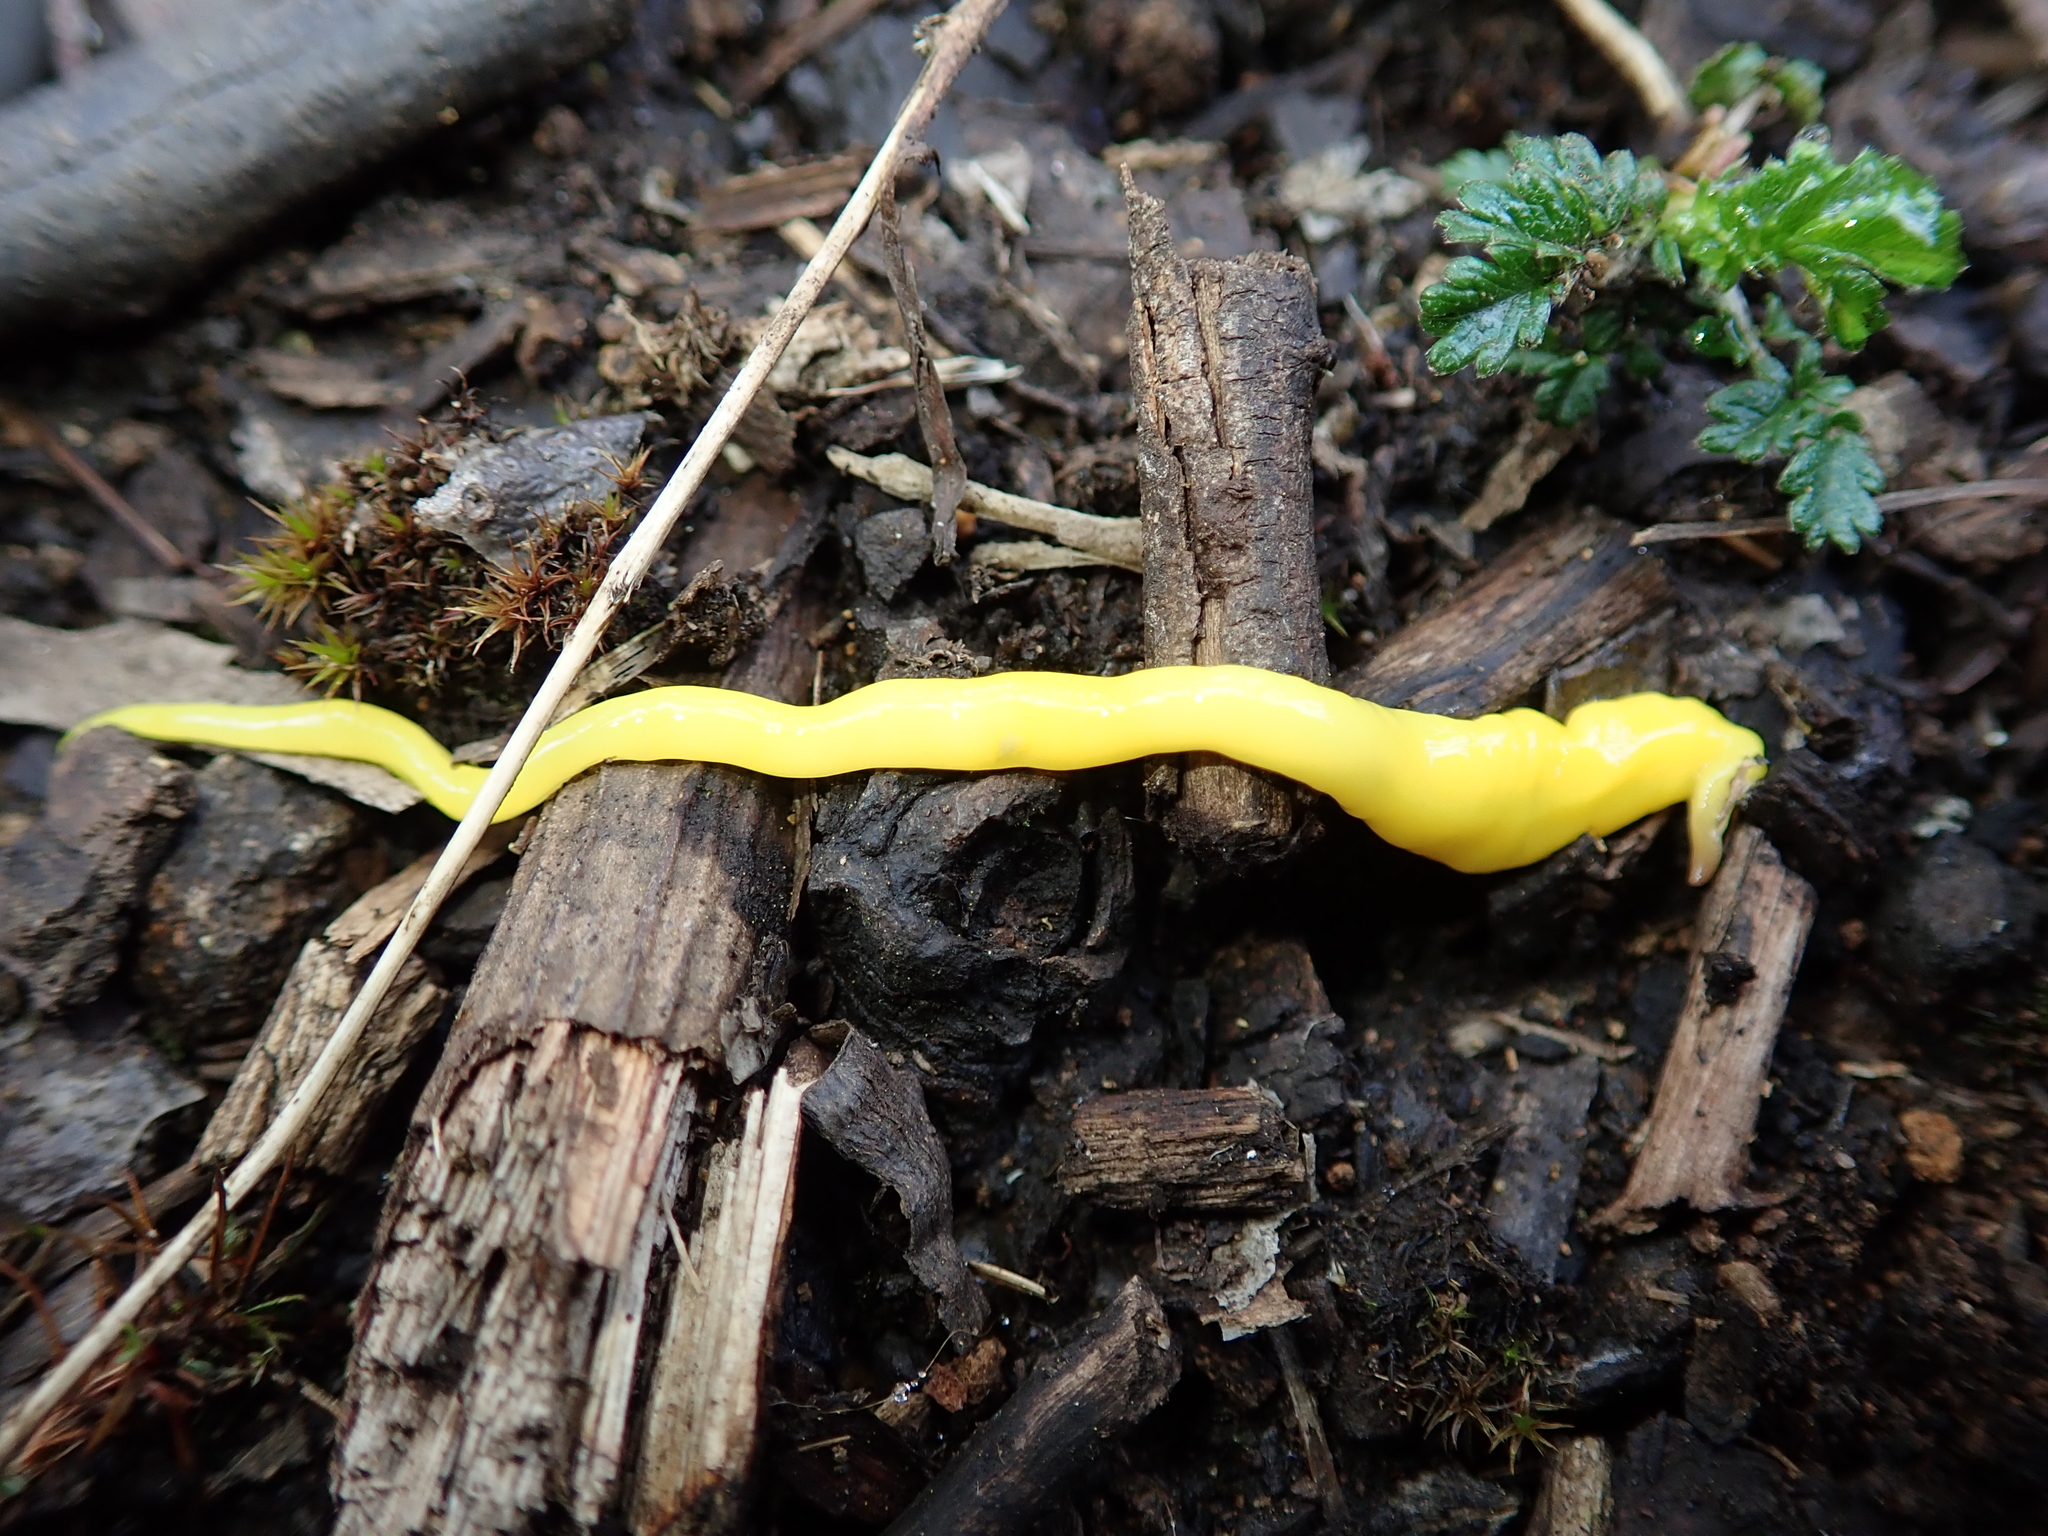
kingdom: Animalia
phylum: Platyhelminthes
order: Tricladida
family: Geoplanidae
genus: Fletchamia
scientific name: Fletchamia sugdeni
